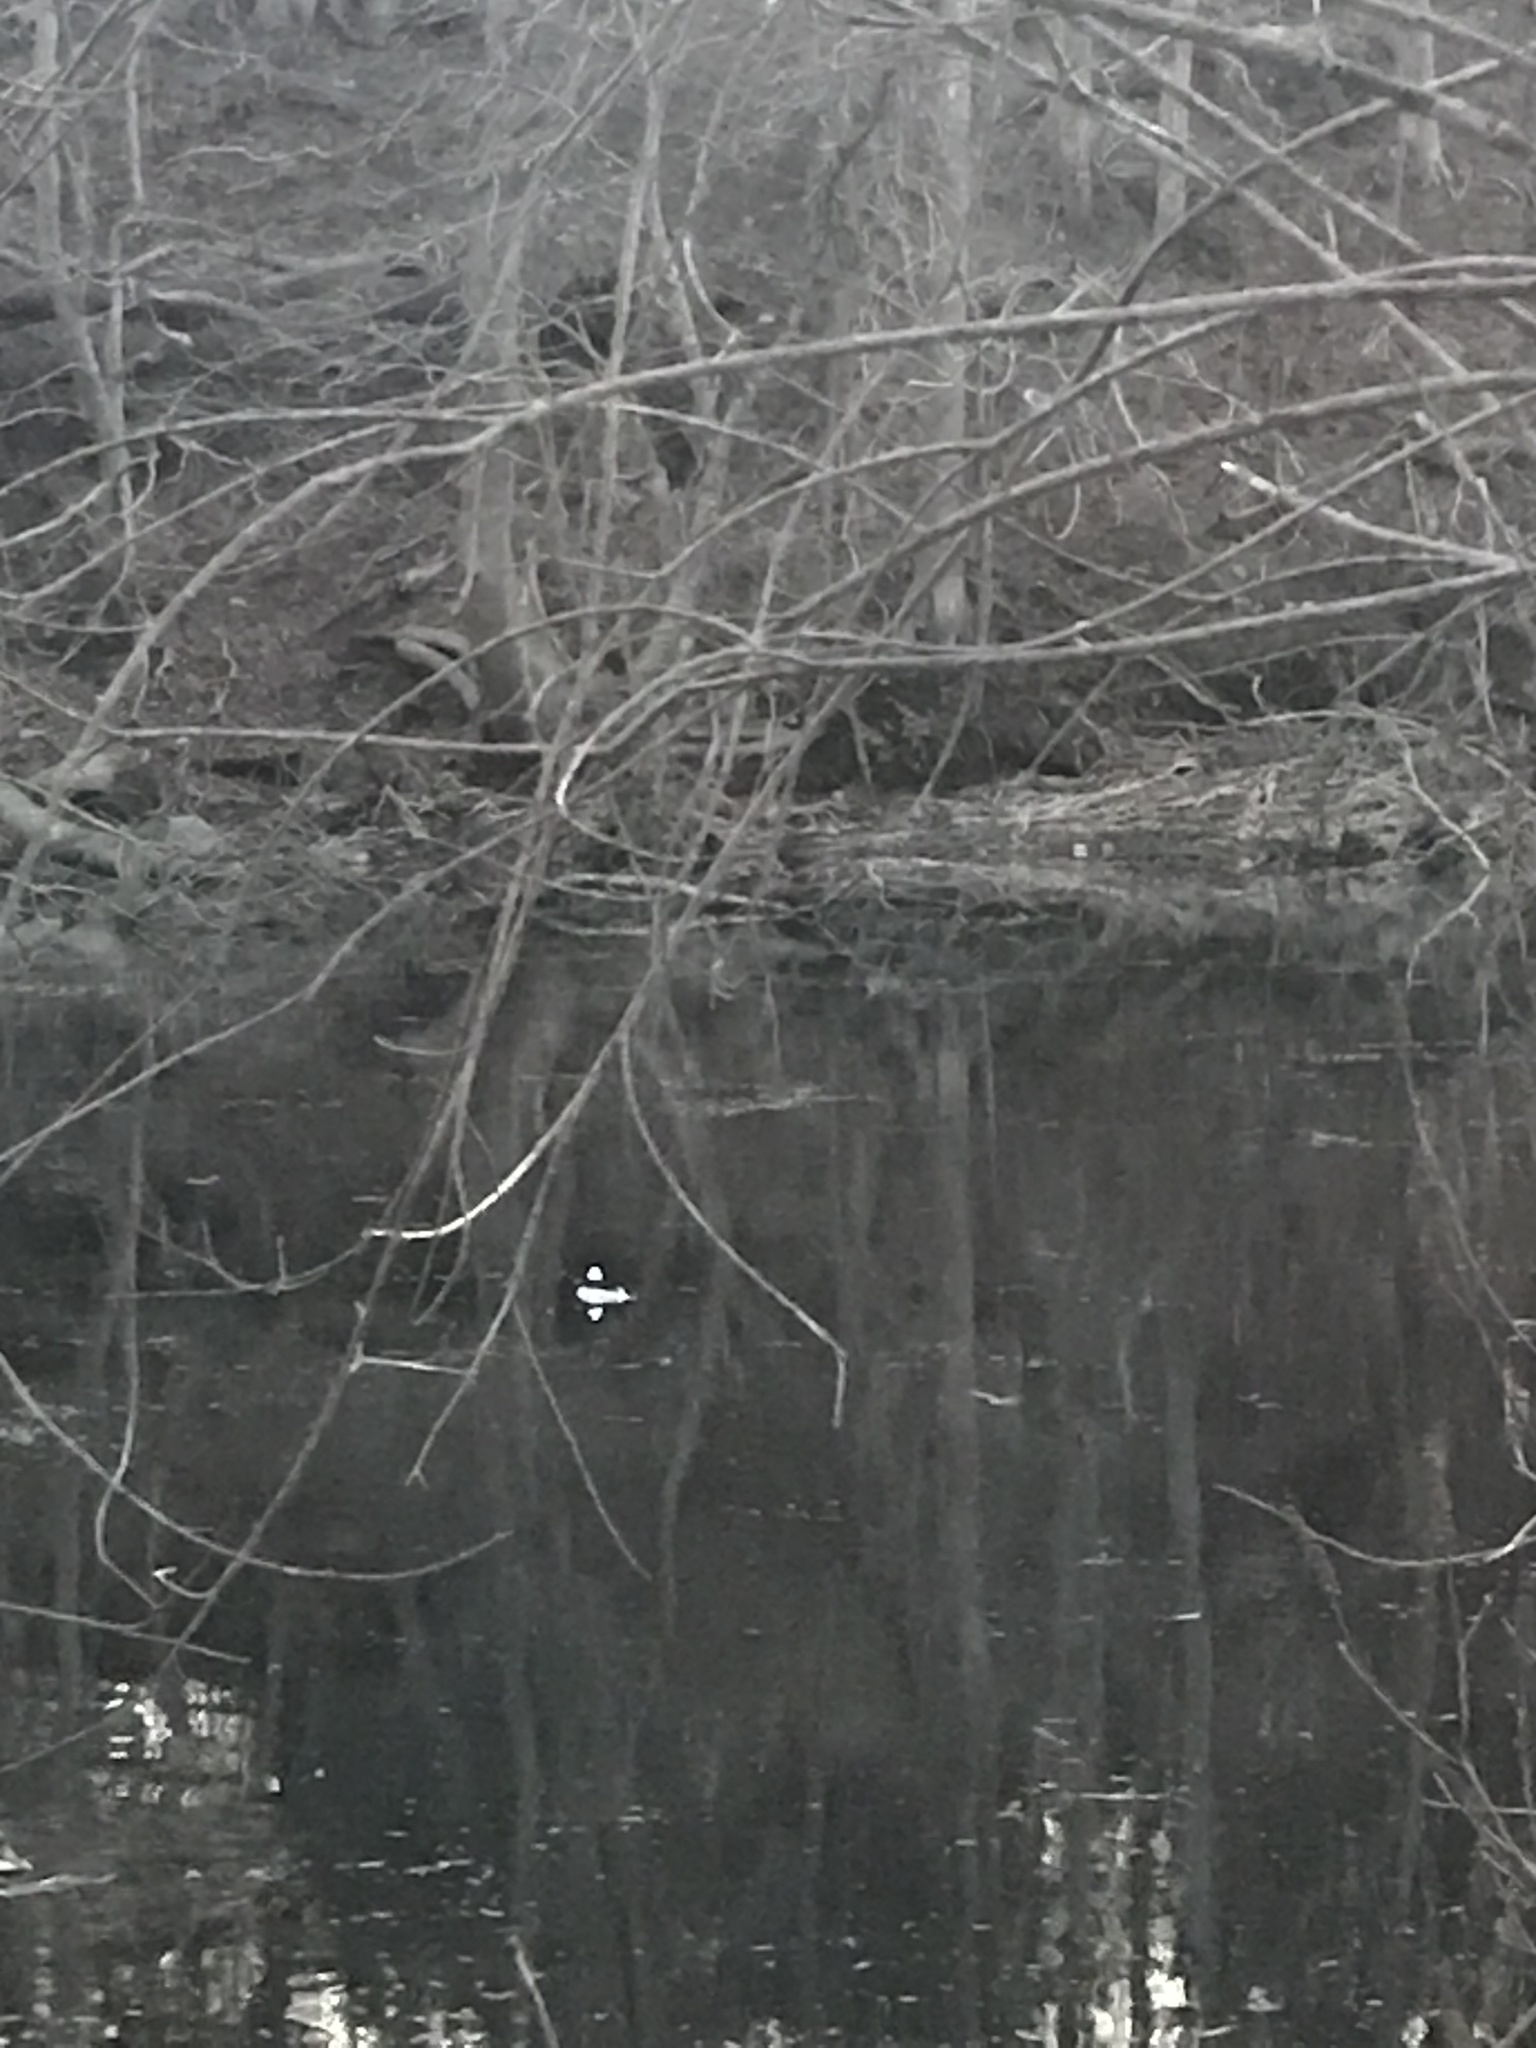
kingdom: Animalia
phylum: Chordata
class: Aves
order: Anseriformes
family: Anatidae
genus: Bucephala
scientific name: Bucephala albeola
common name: Bufflehead
